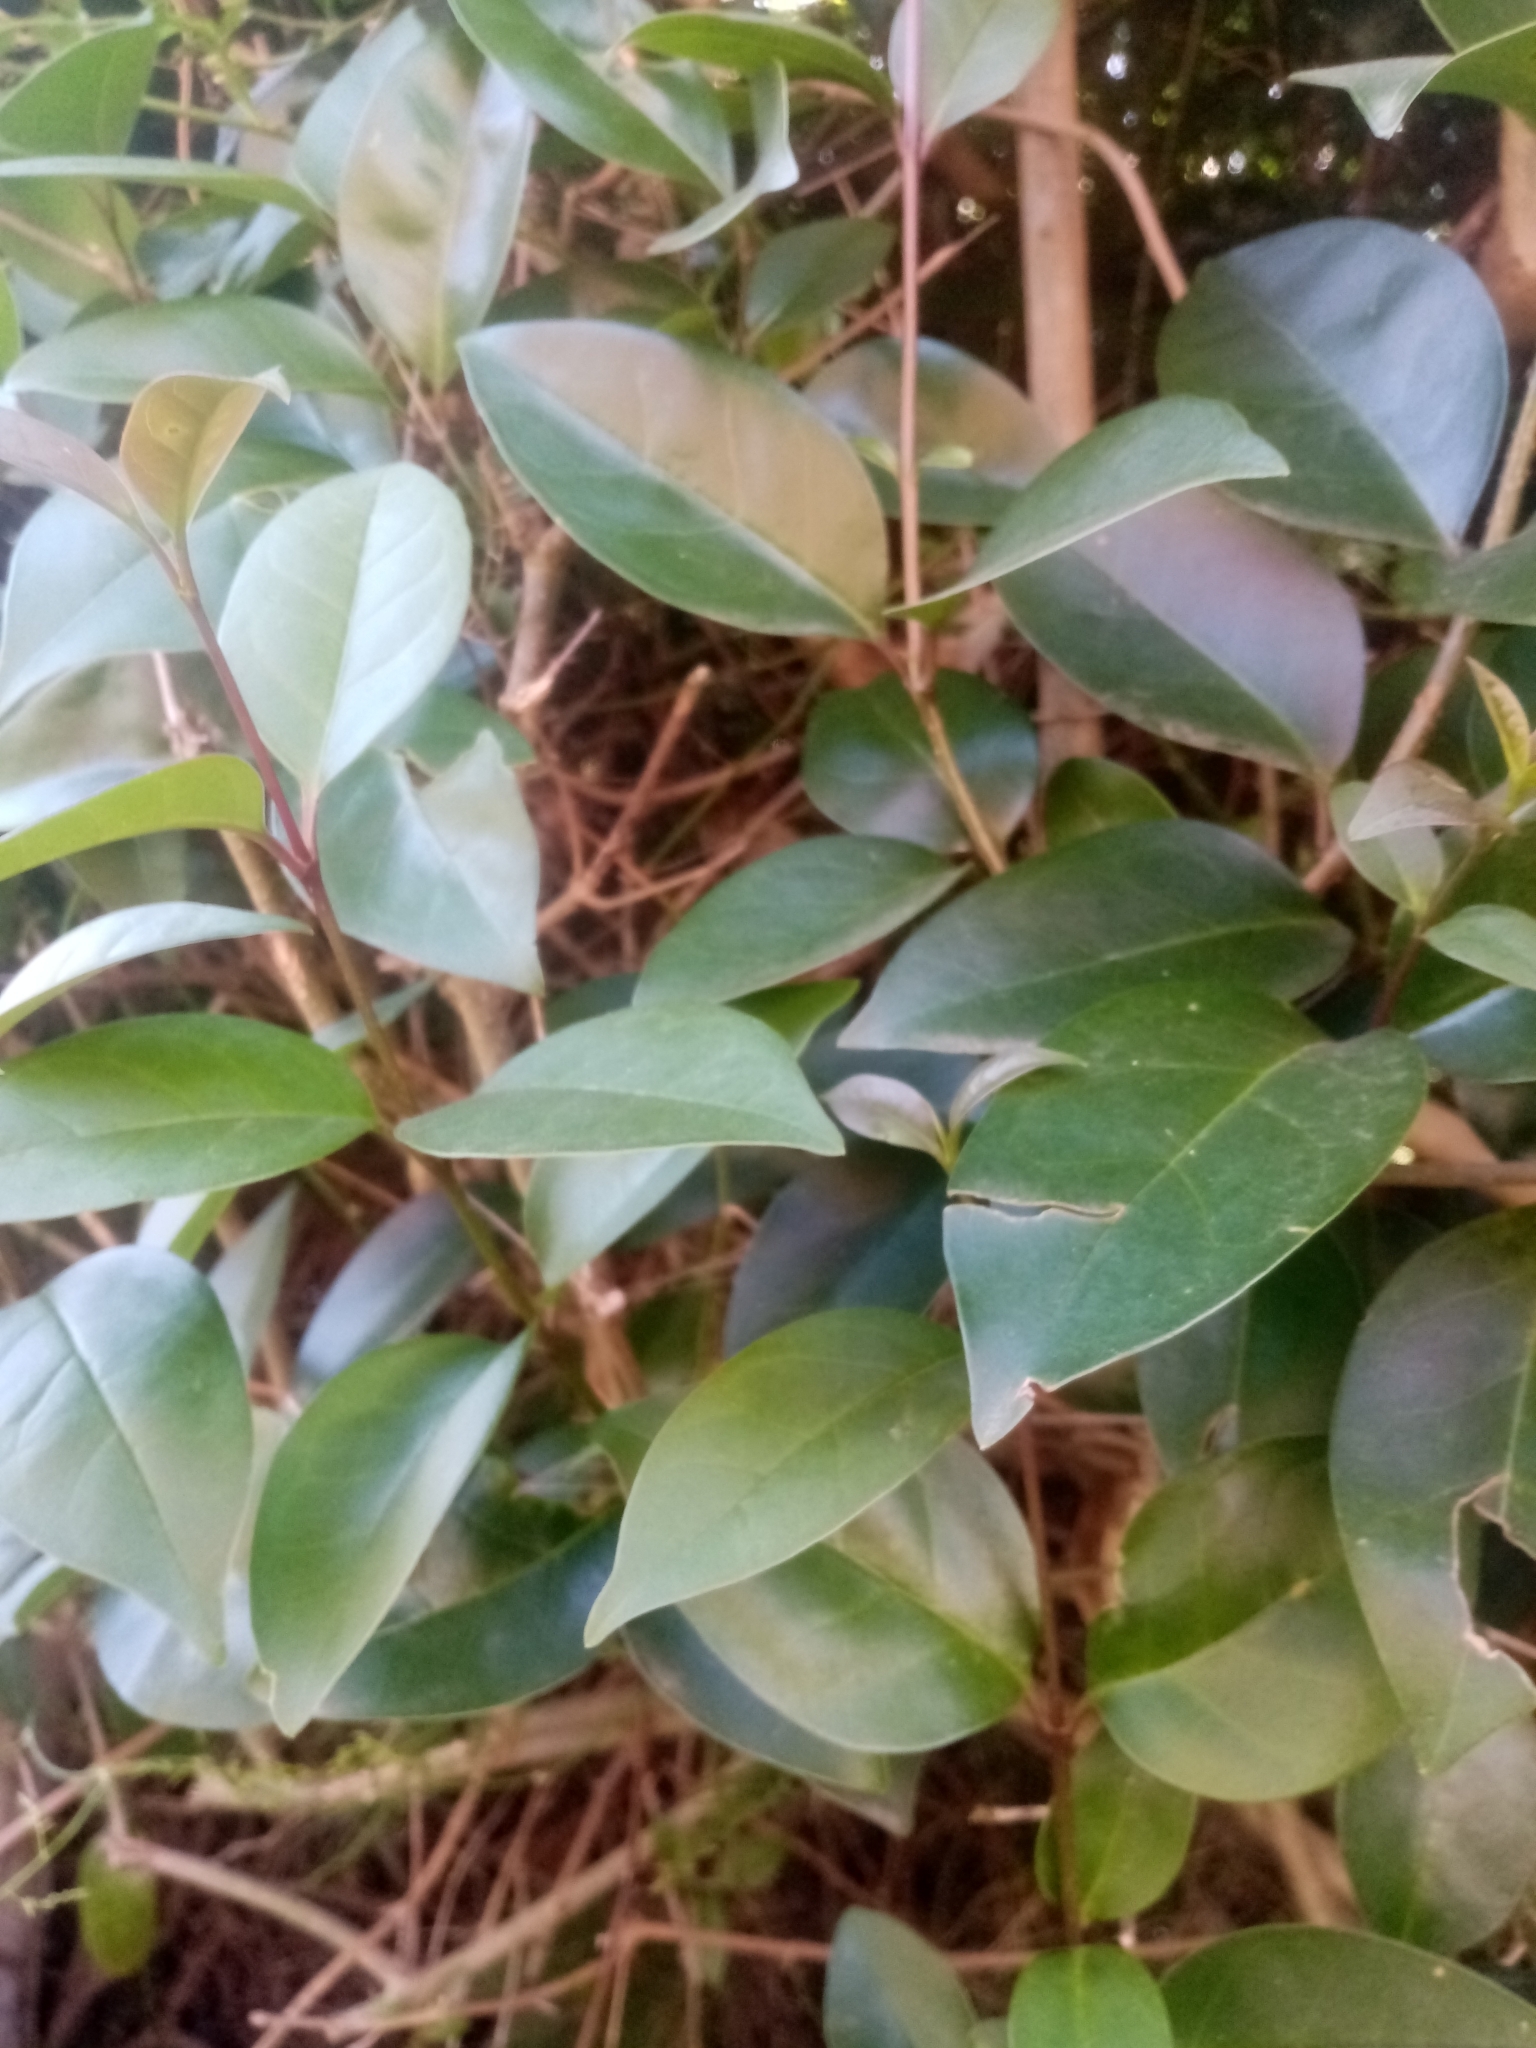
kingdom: Plantae
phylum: Tracheophyta
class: Magnoliopsida
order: Lamiales
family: Oleaceae
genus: Ligustrum
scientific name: Ligustrum lucidum
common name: Glossy privet
